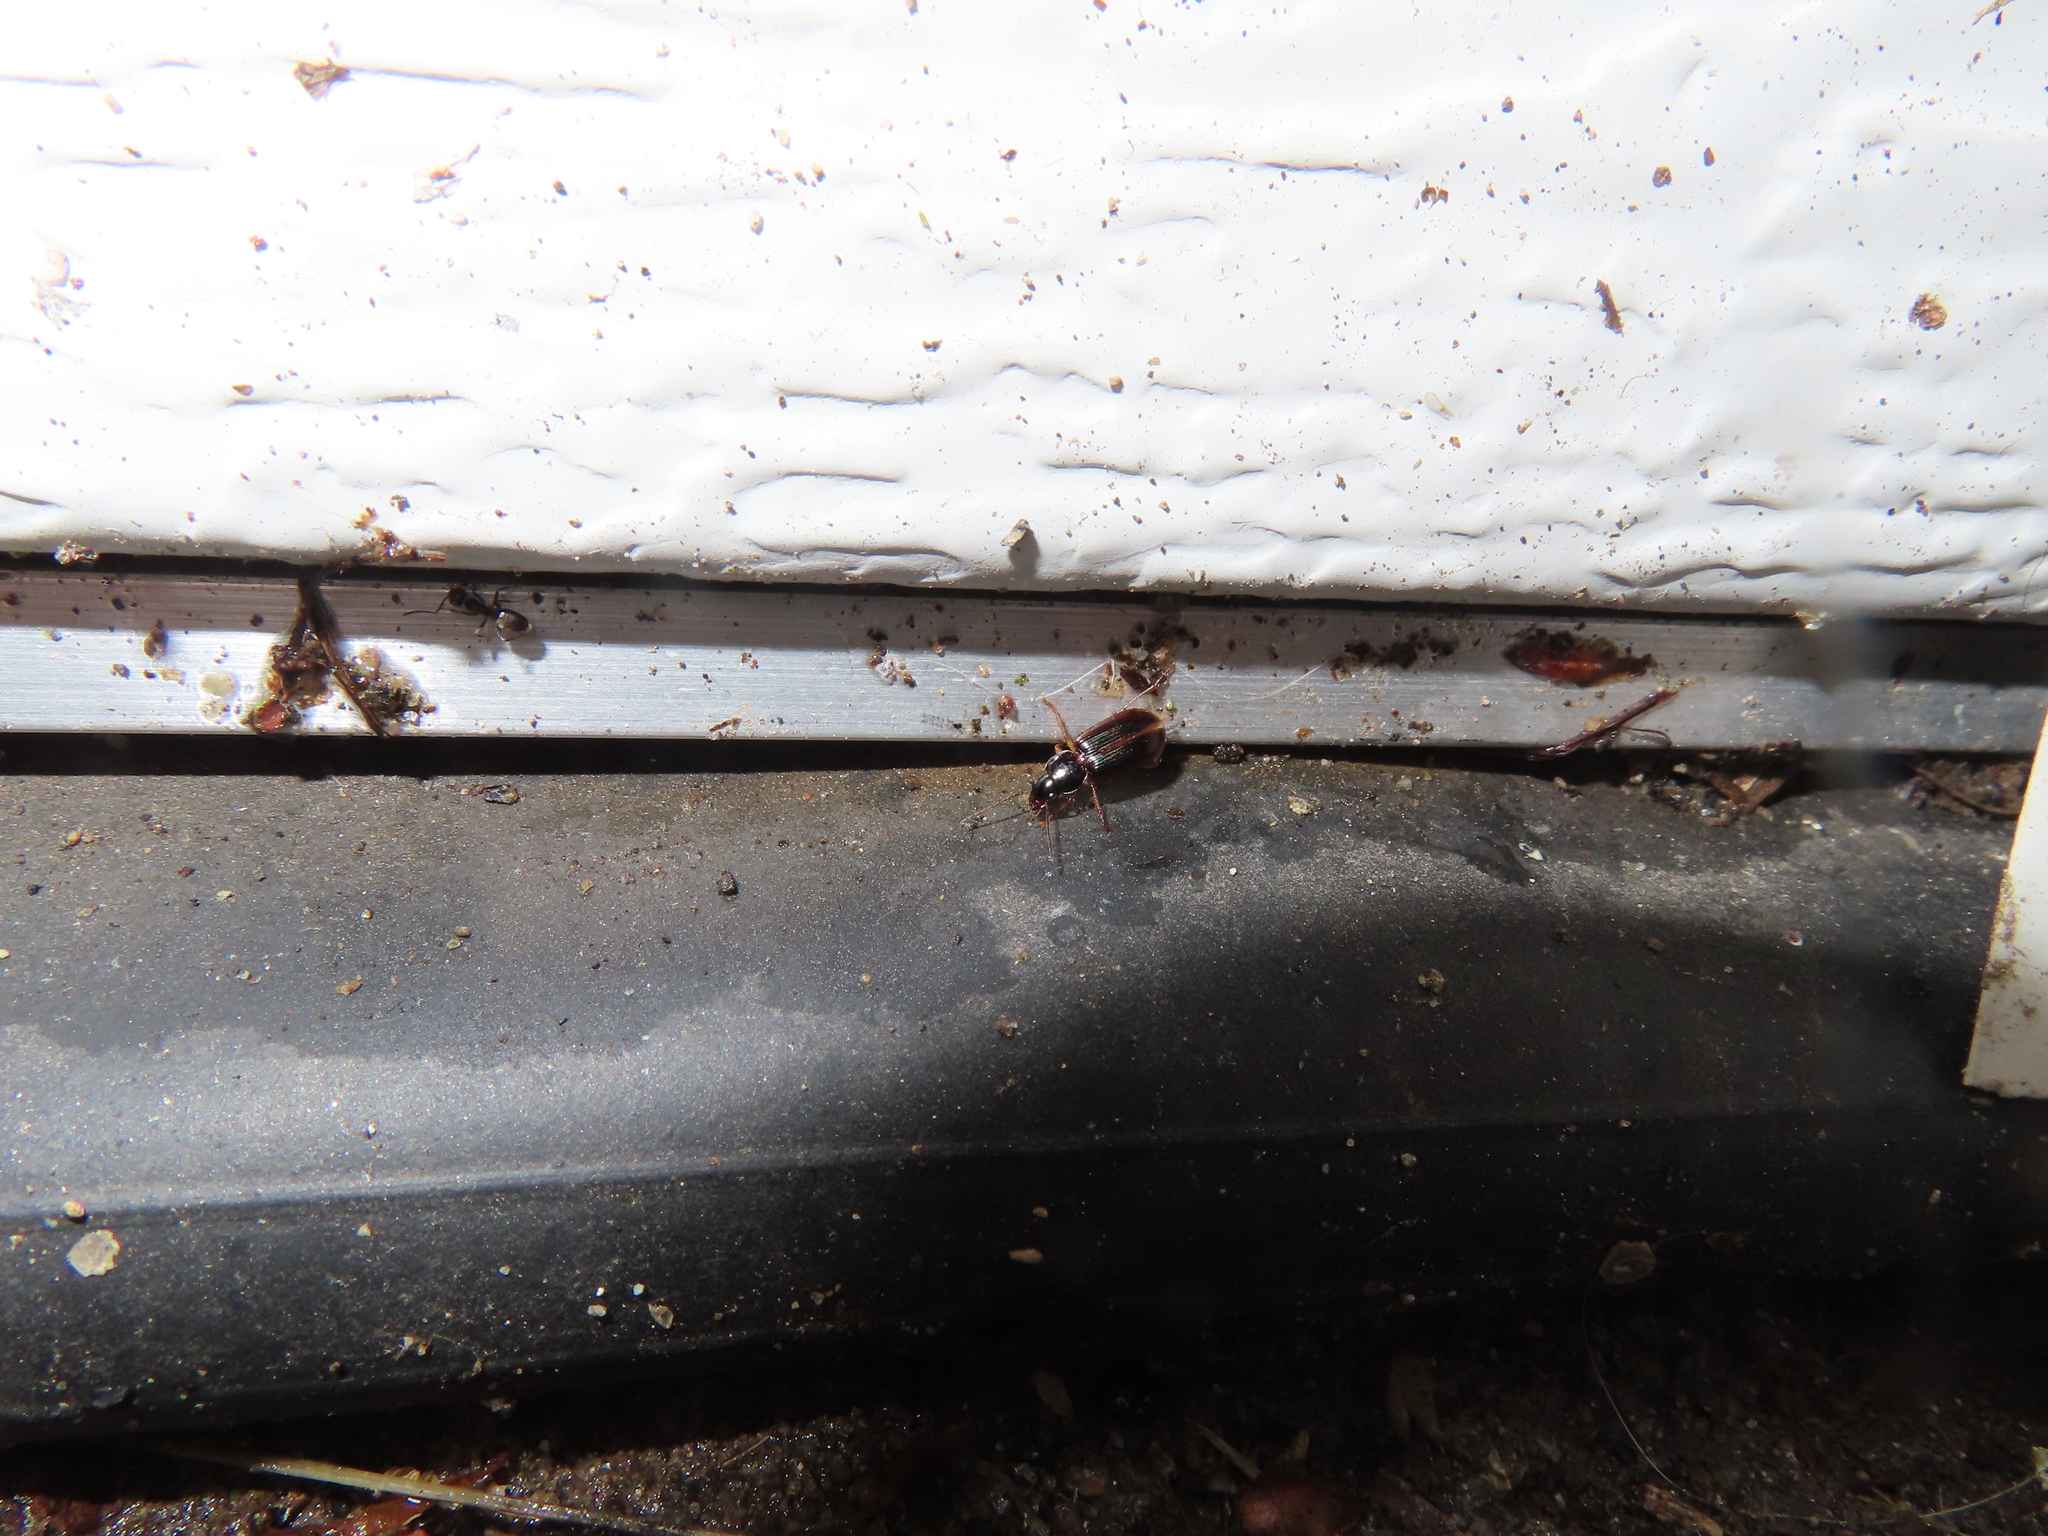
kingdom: Animalia
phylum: Arthropoda
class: Insecta
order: Coleoptera
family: Carabidae
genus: Stenolophus
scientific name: Stenolophus ochropezus
